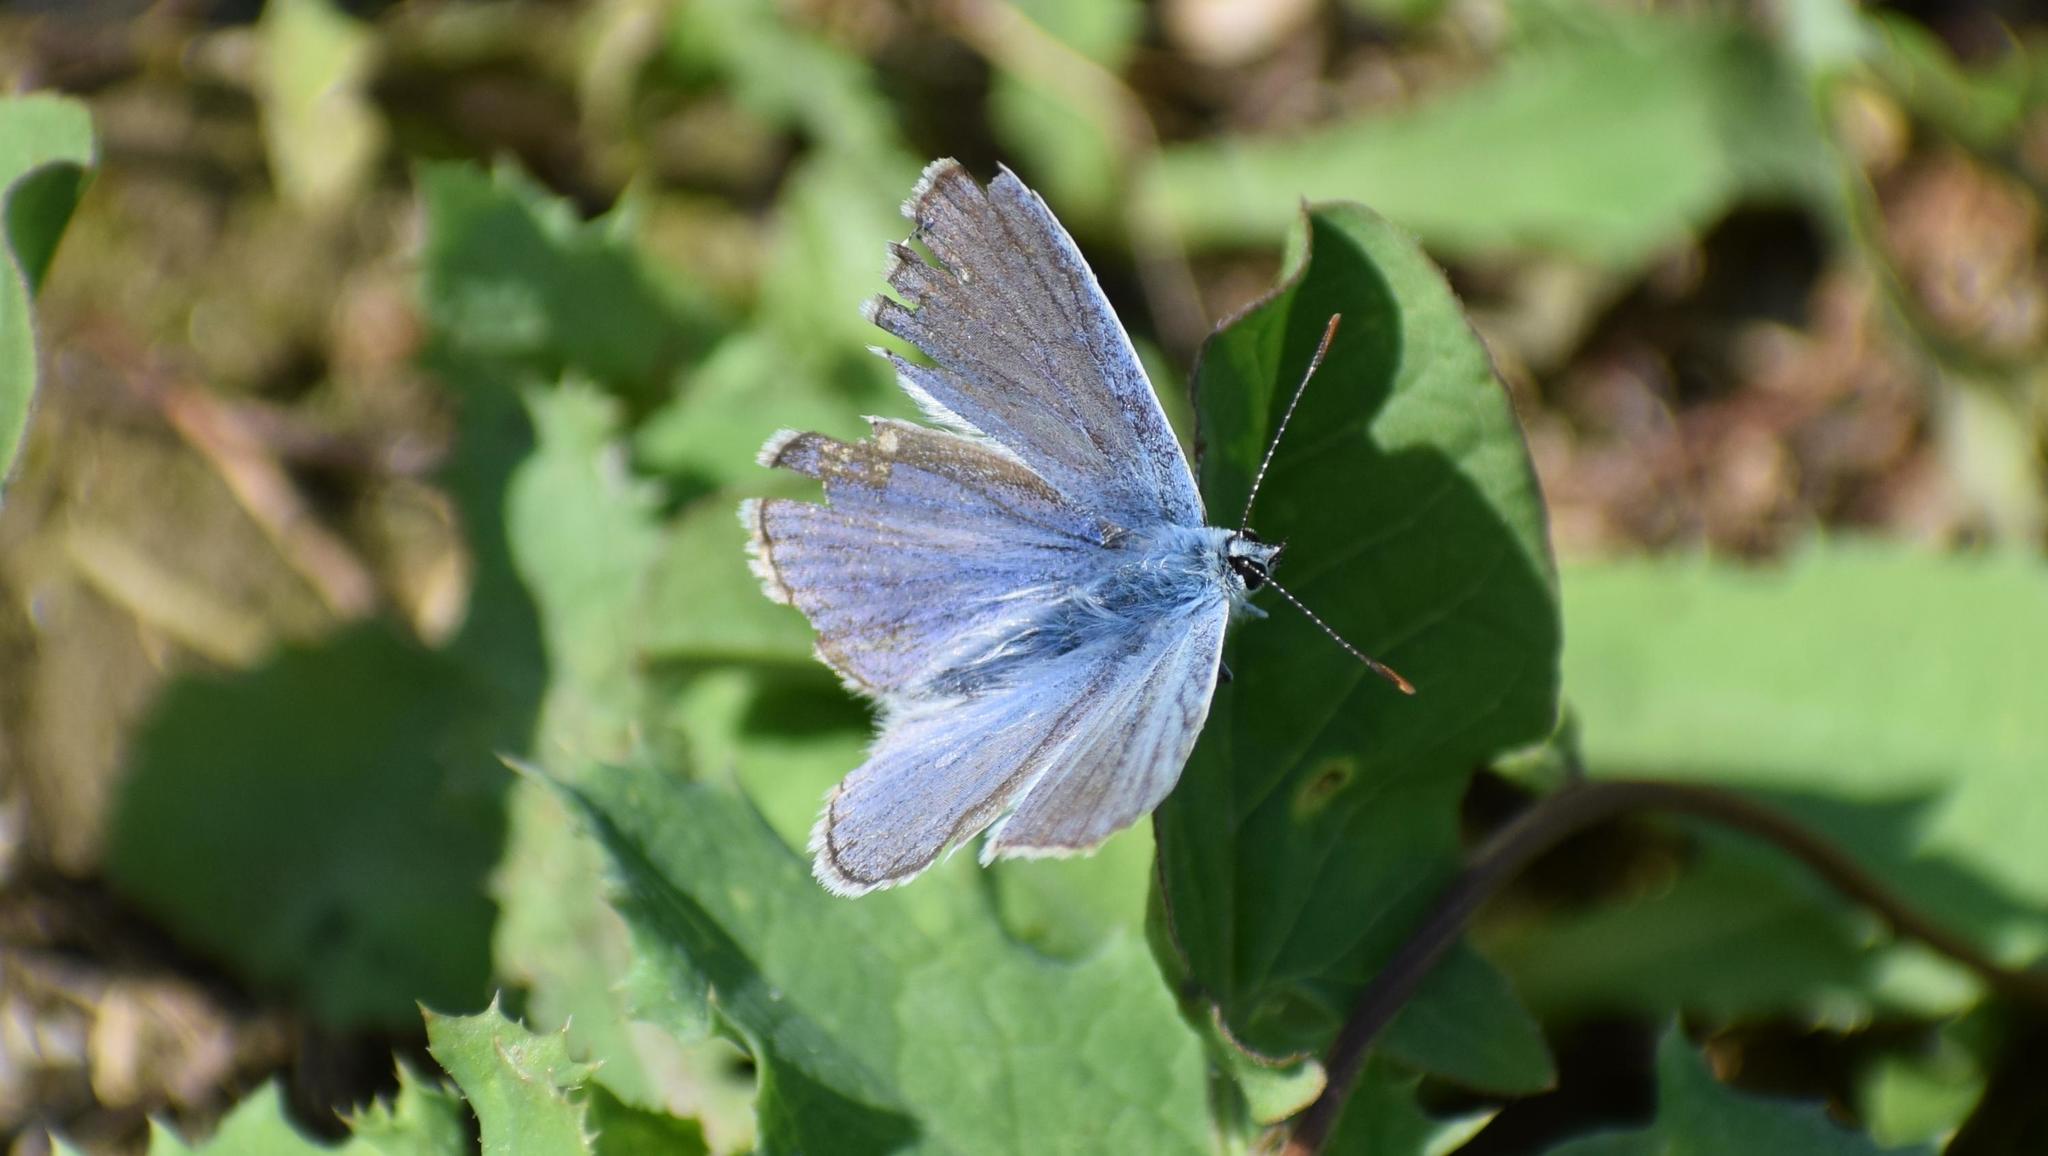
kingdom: Animalia
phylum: Arthropoda
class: Insecta
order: Lepidoptera
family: Lycaenidae
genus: Polyommatus
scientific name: Polyommatus icarus
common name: Common blue
